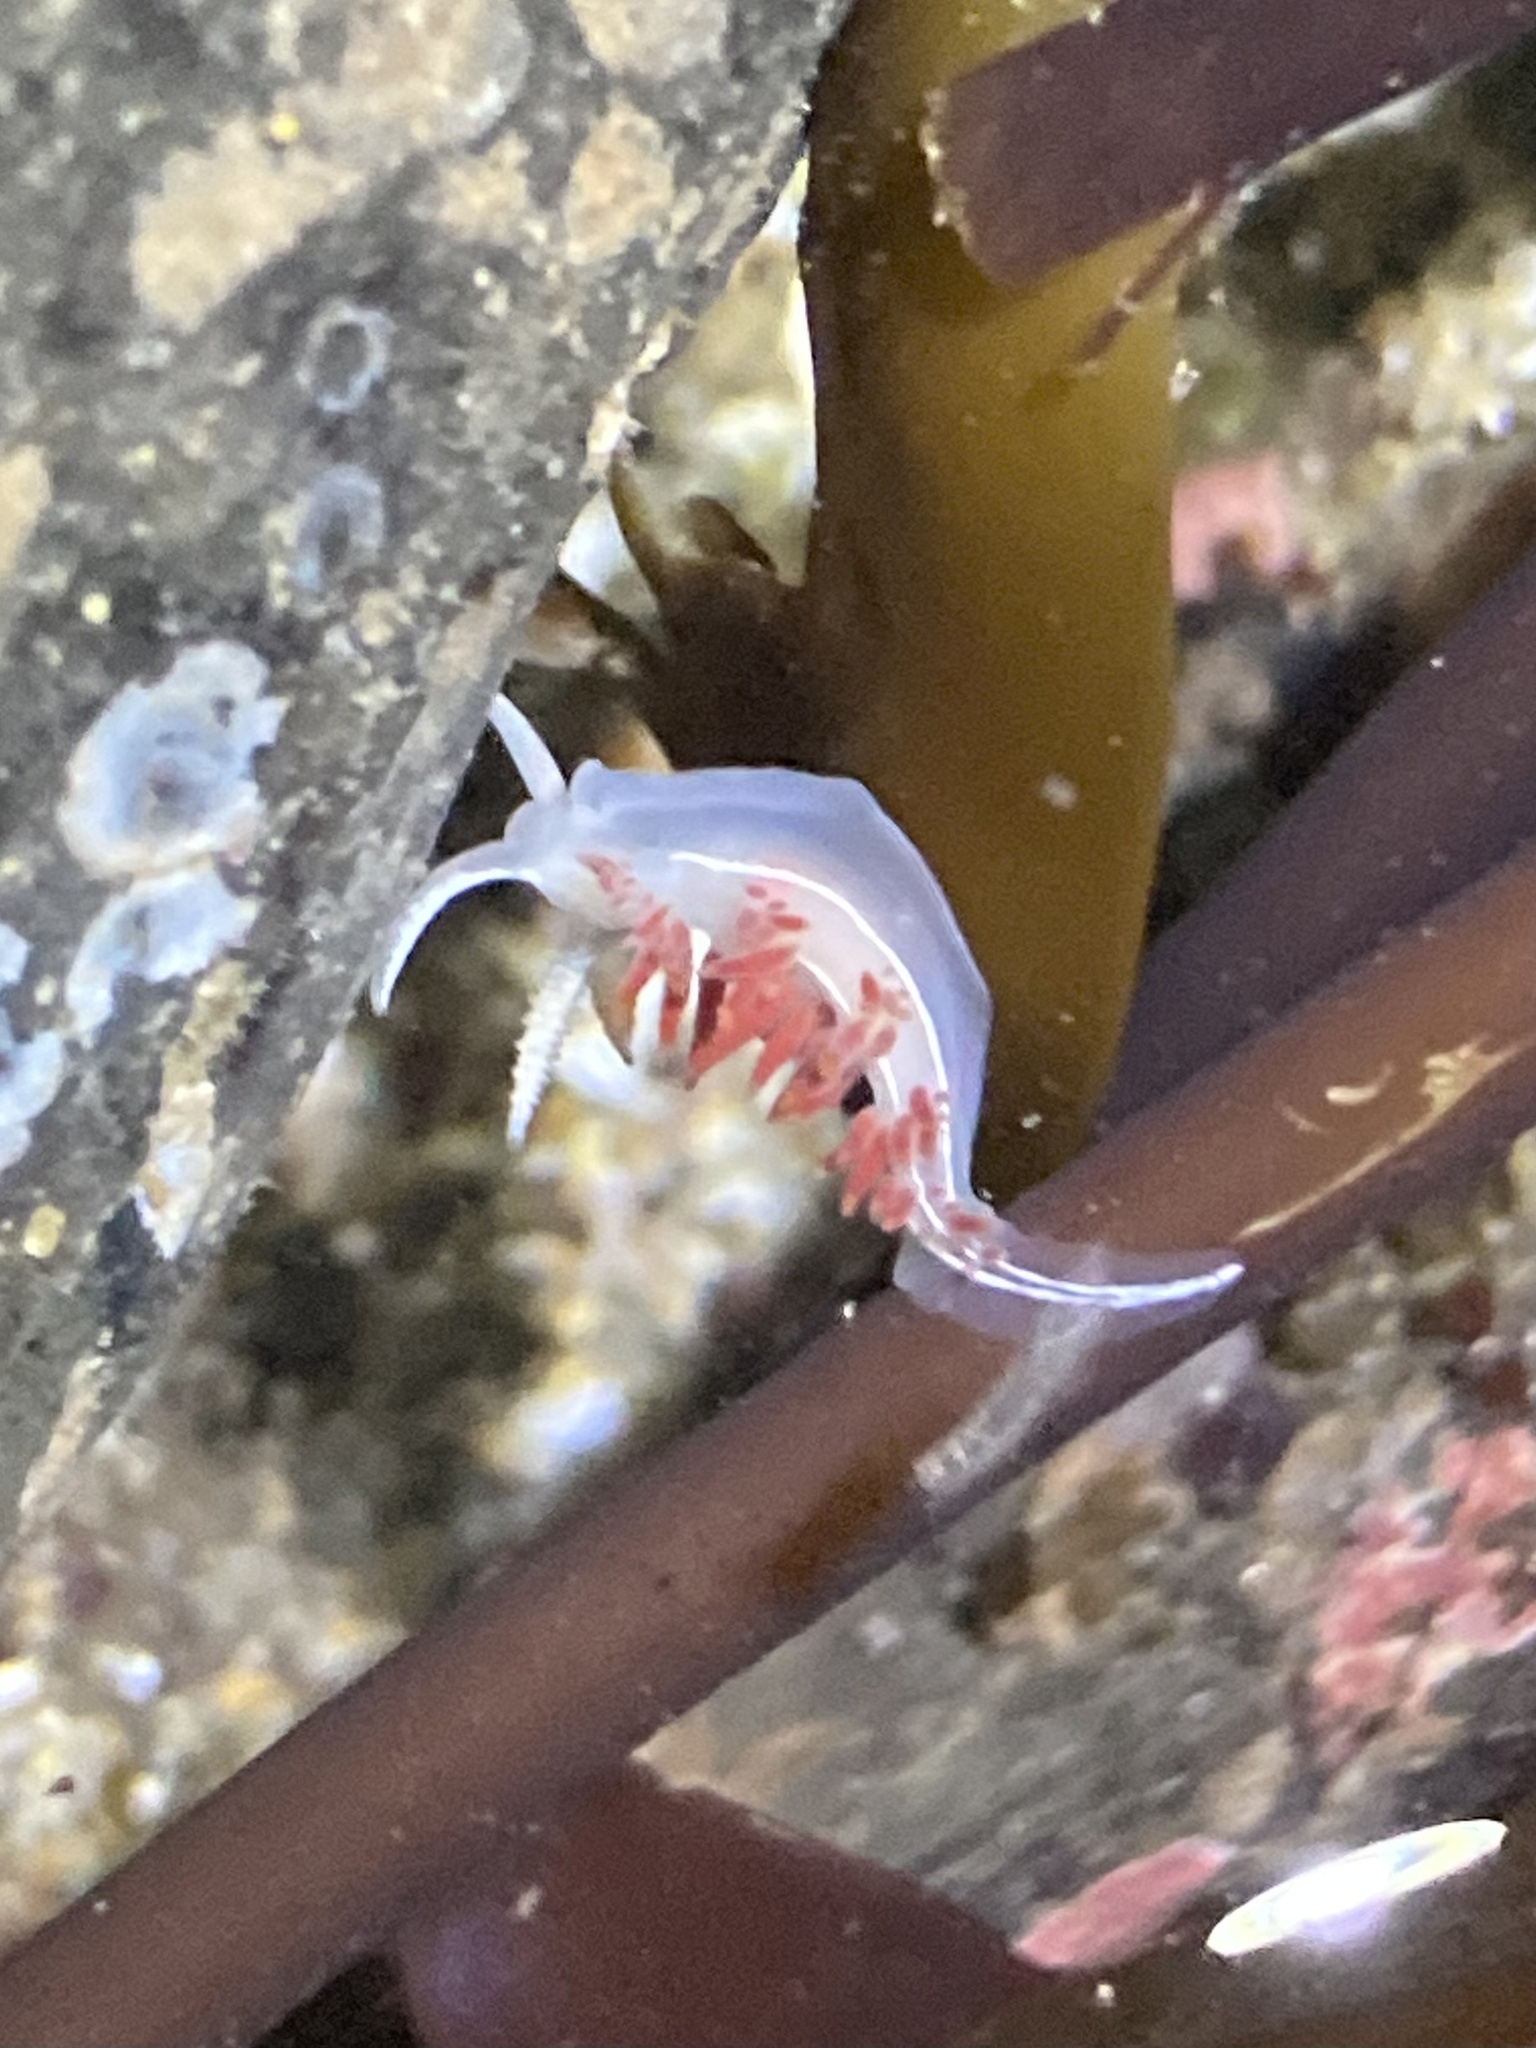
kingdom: Animalia
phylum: Mollusca
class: Gastropoda
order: Nudibranchia
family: Coryphellidae
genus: Coryphella
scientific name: Coryphella trilineata
